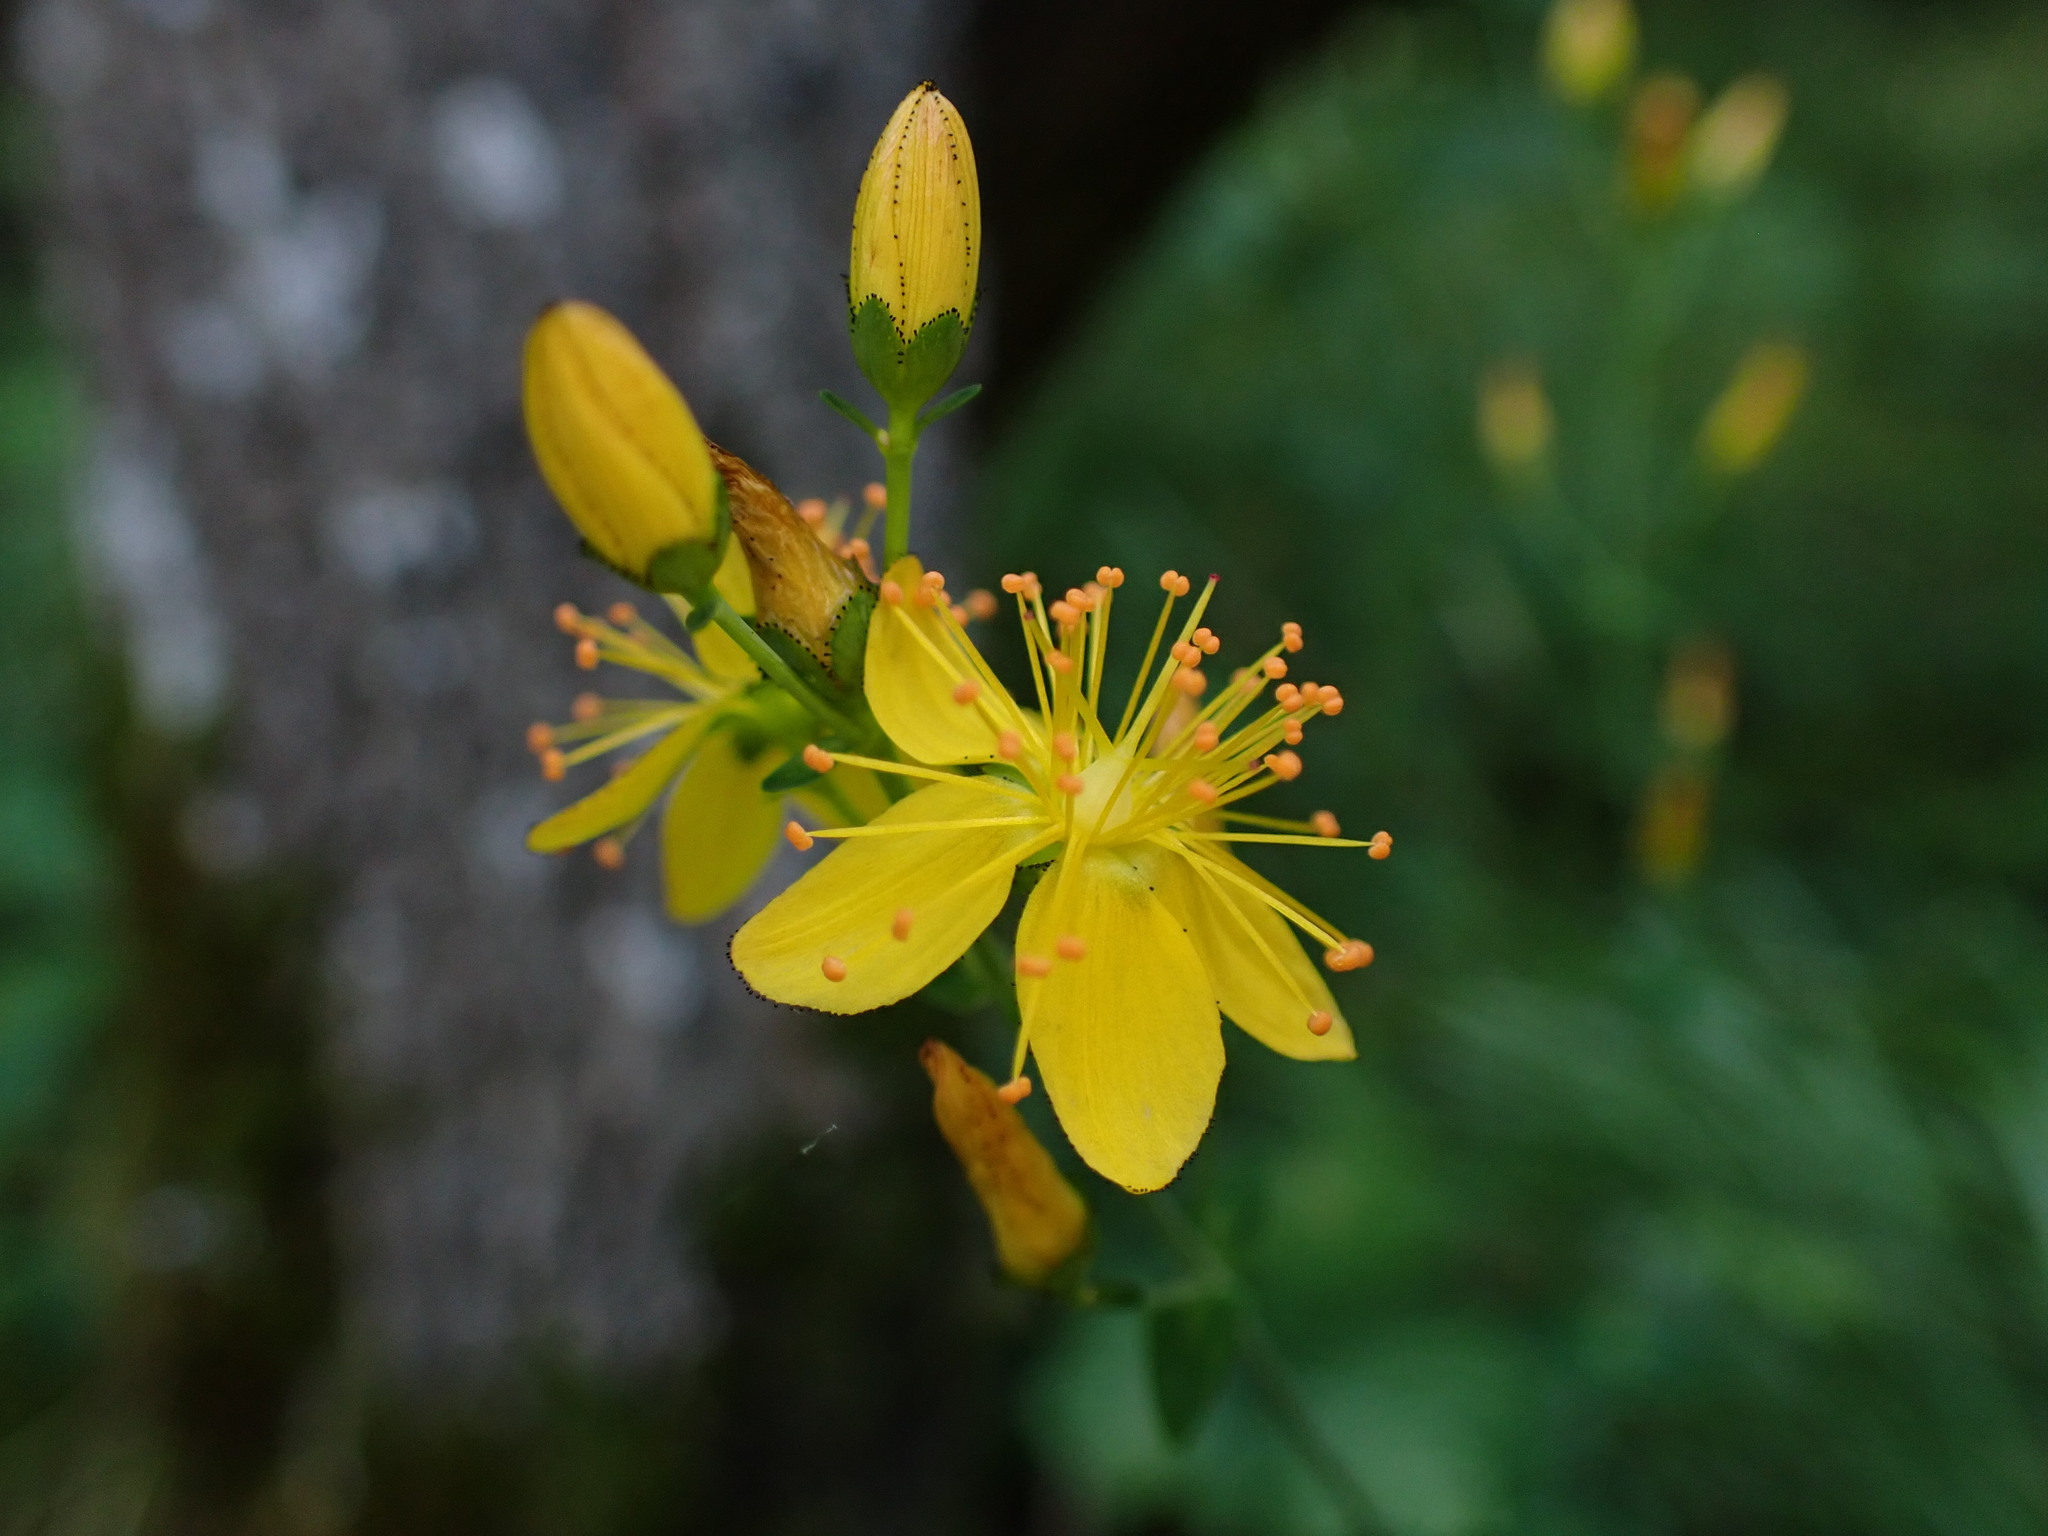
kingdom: Plantae
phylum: Tracheophyta
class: Magnoliopsida
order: Malpighiales
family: Hypericaceae
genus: Hypericum
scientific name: Hypericum pulchrum
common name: Slender st. john's-wort
